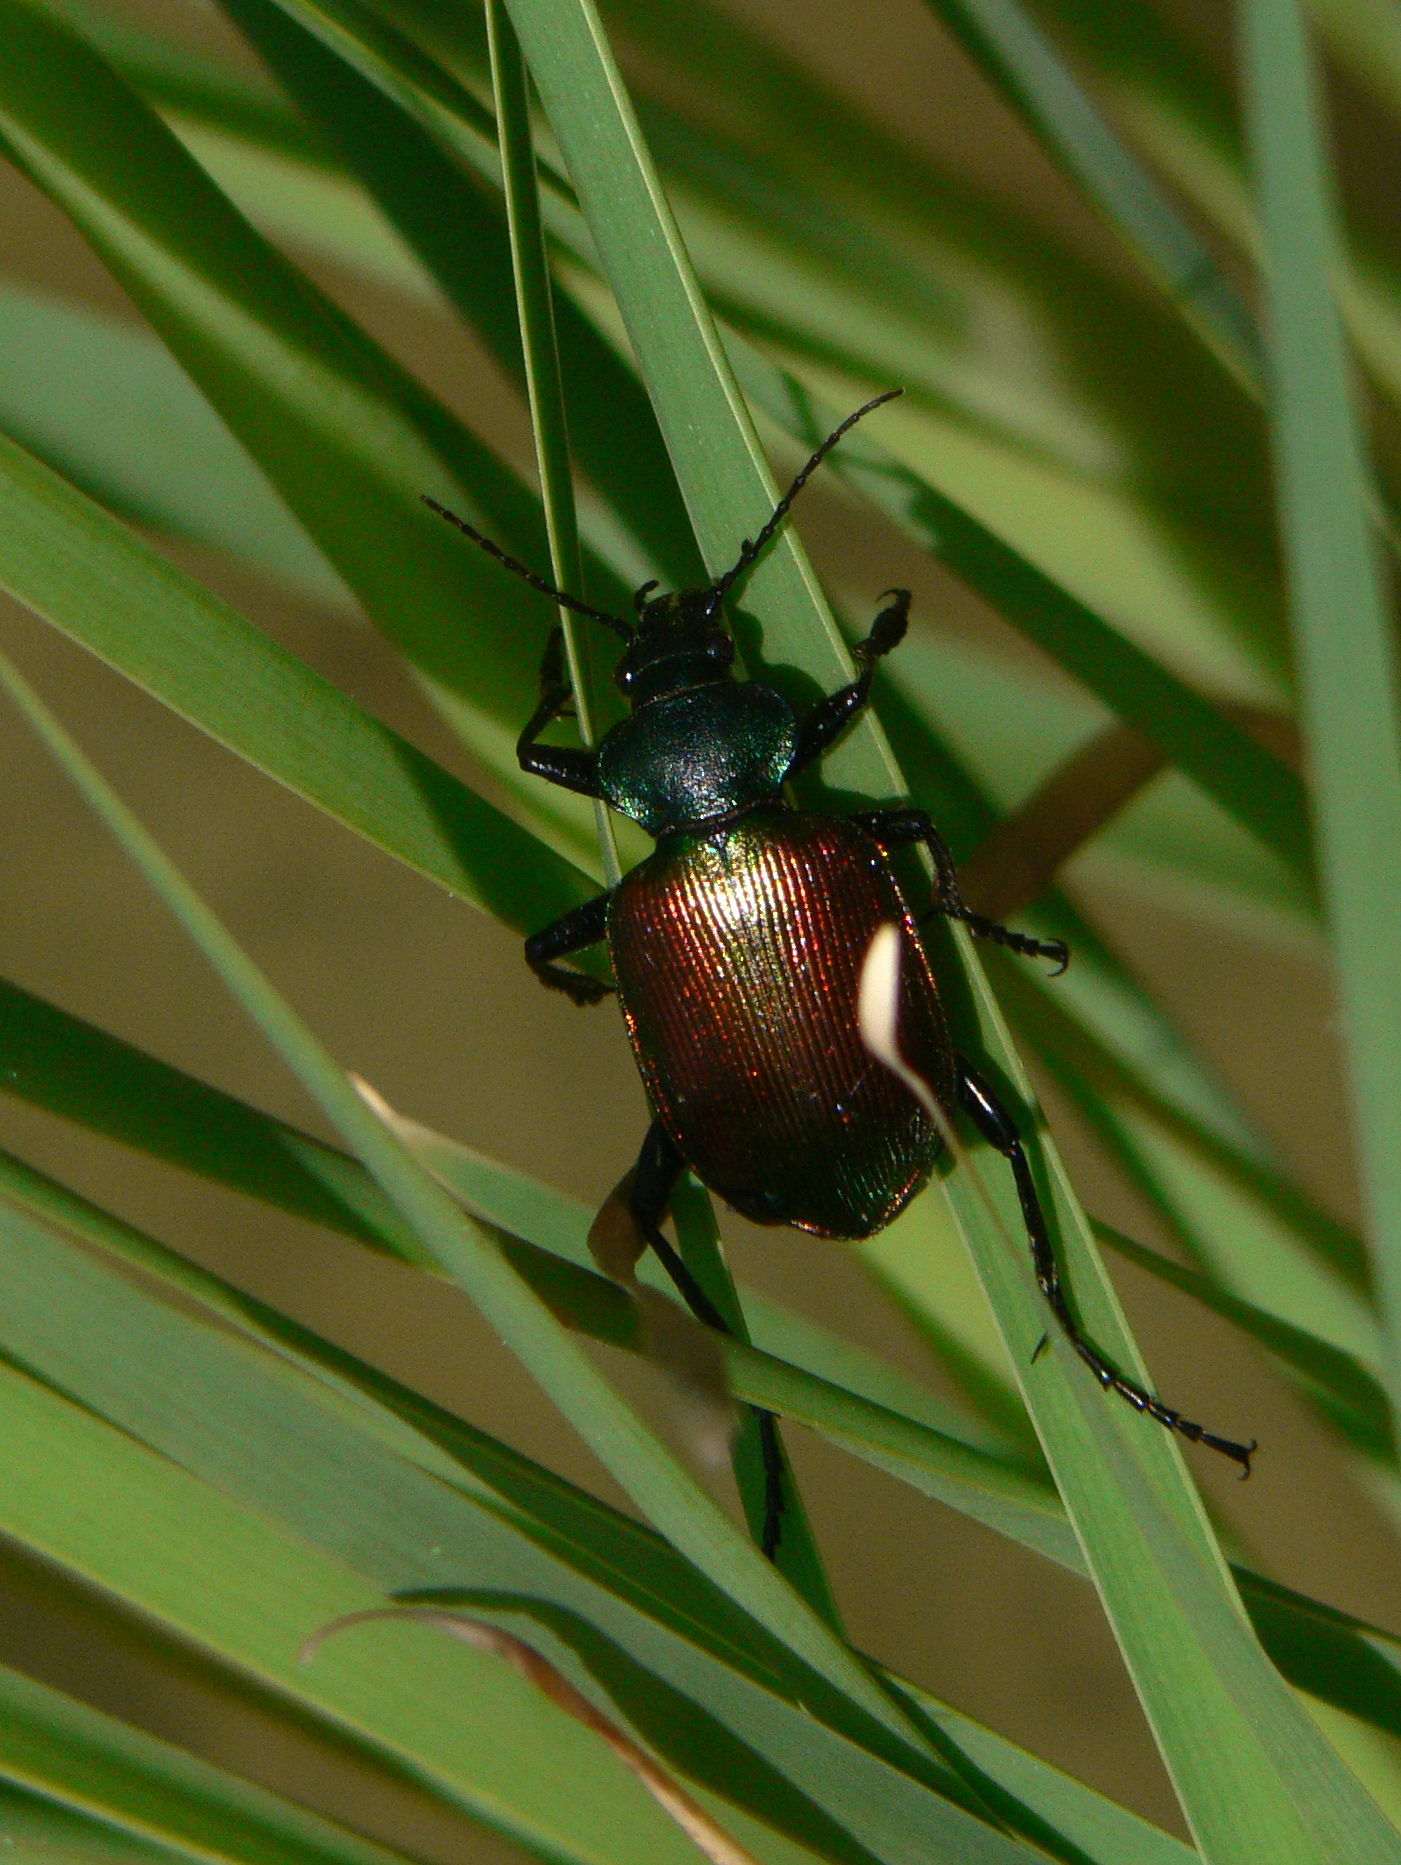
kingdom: Animalia
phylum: Arthropoda
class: Insecta
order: Coleoptera
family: Carabidae
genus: Calosoma
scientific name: Calosoma sycophanta
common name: Forest caterpillar hunter
